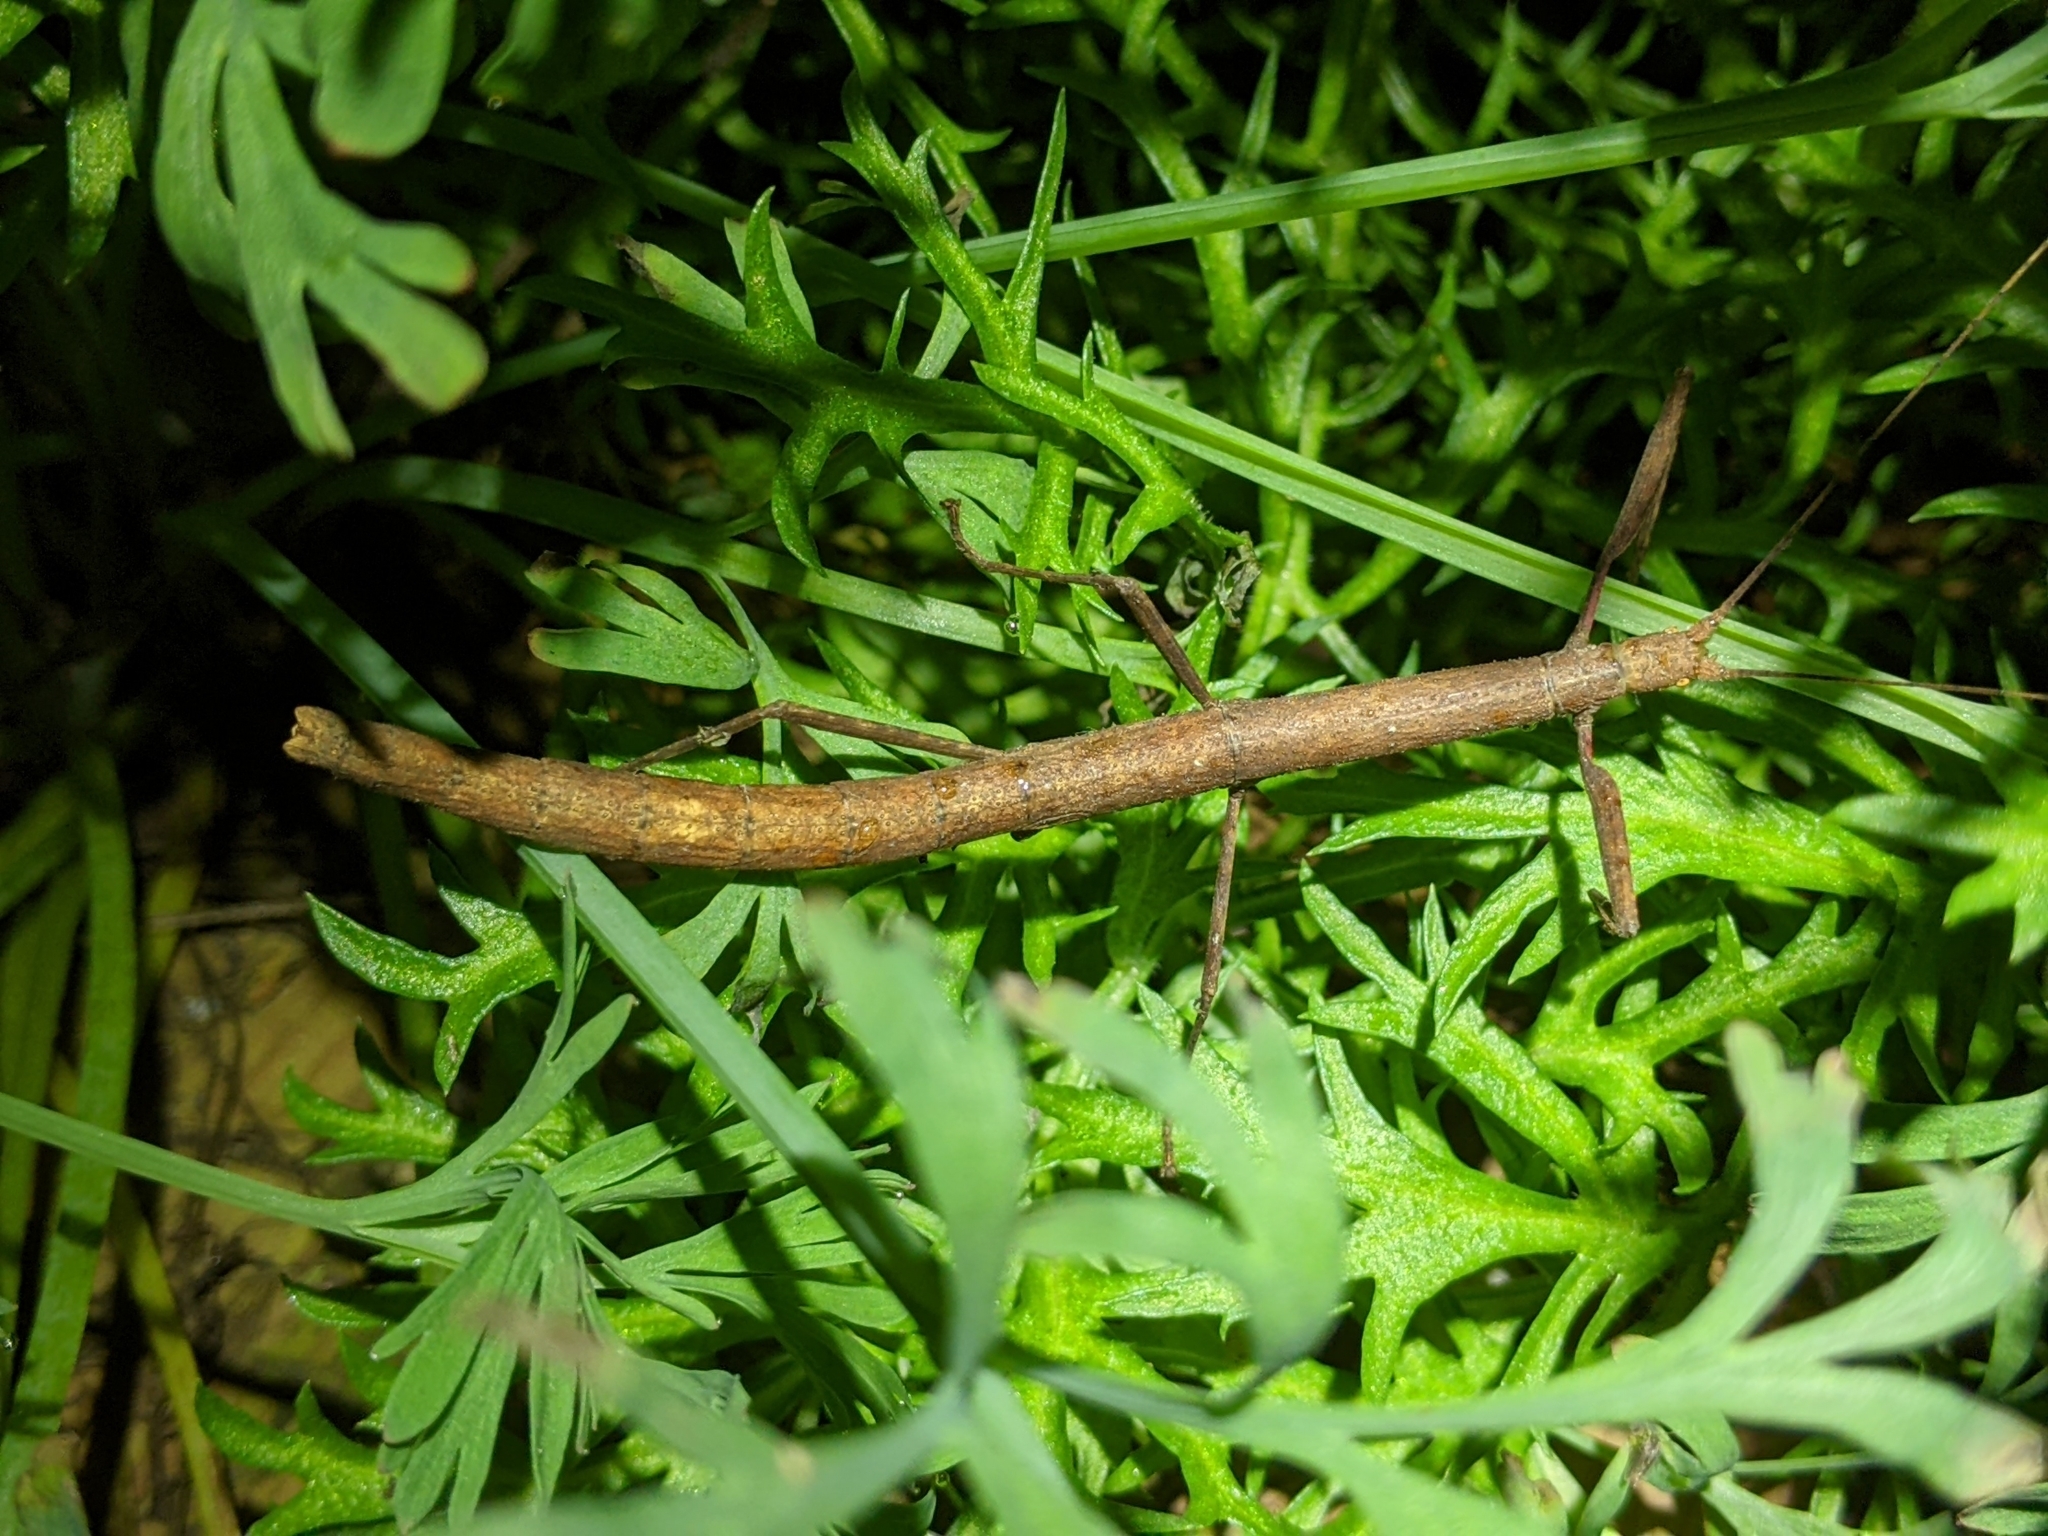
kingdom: Animalia
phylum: Arthropoda
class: Insecta
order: Phasmida
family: Lonchodidae
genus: Carausius
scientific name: Carausius morosus
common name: Indian stick insect
